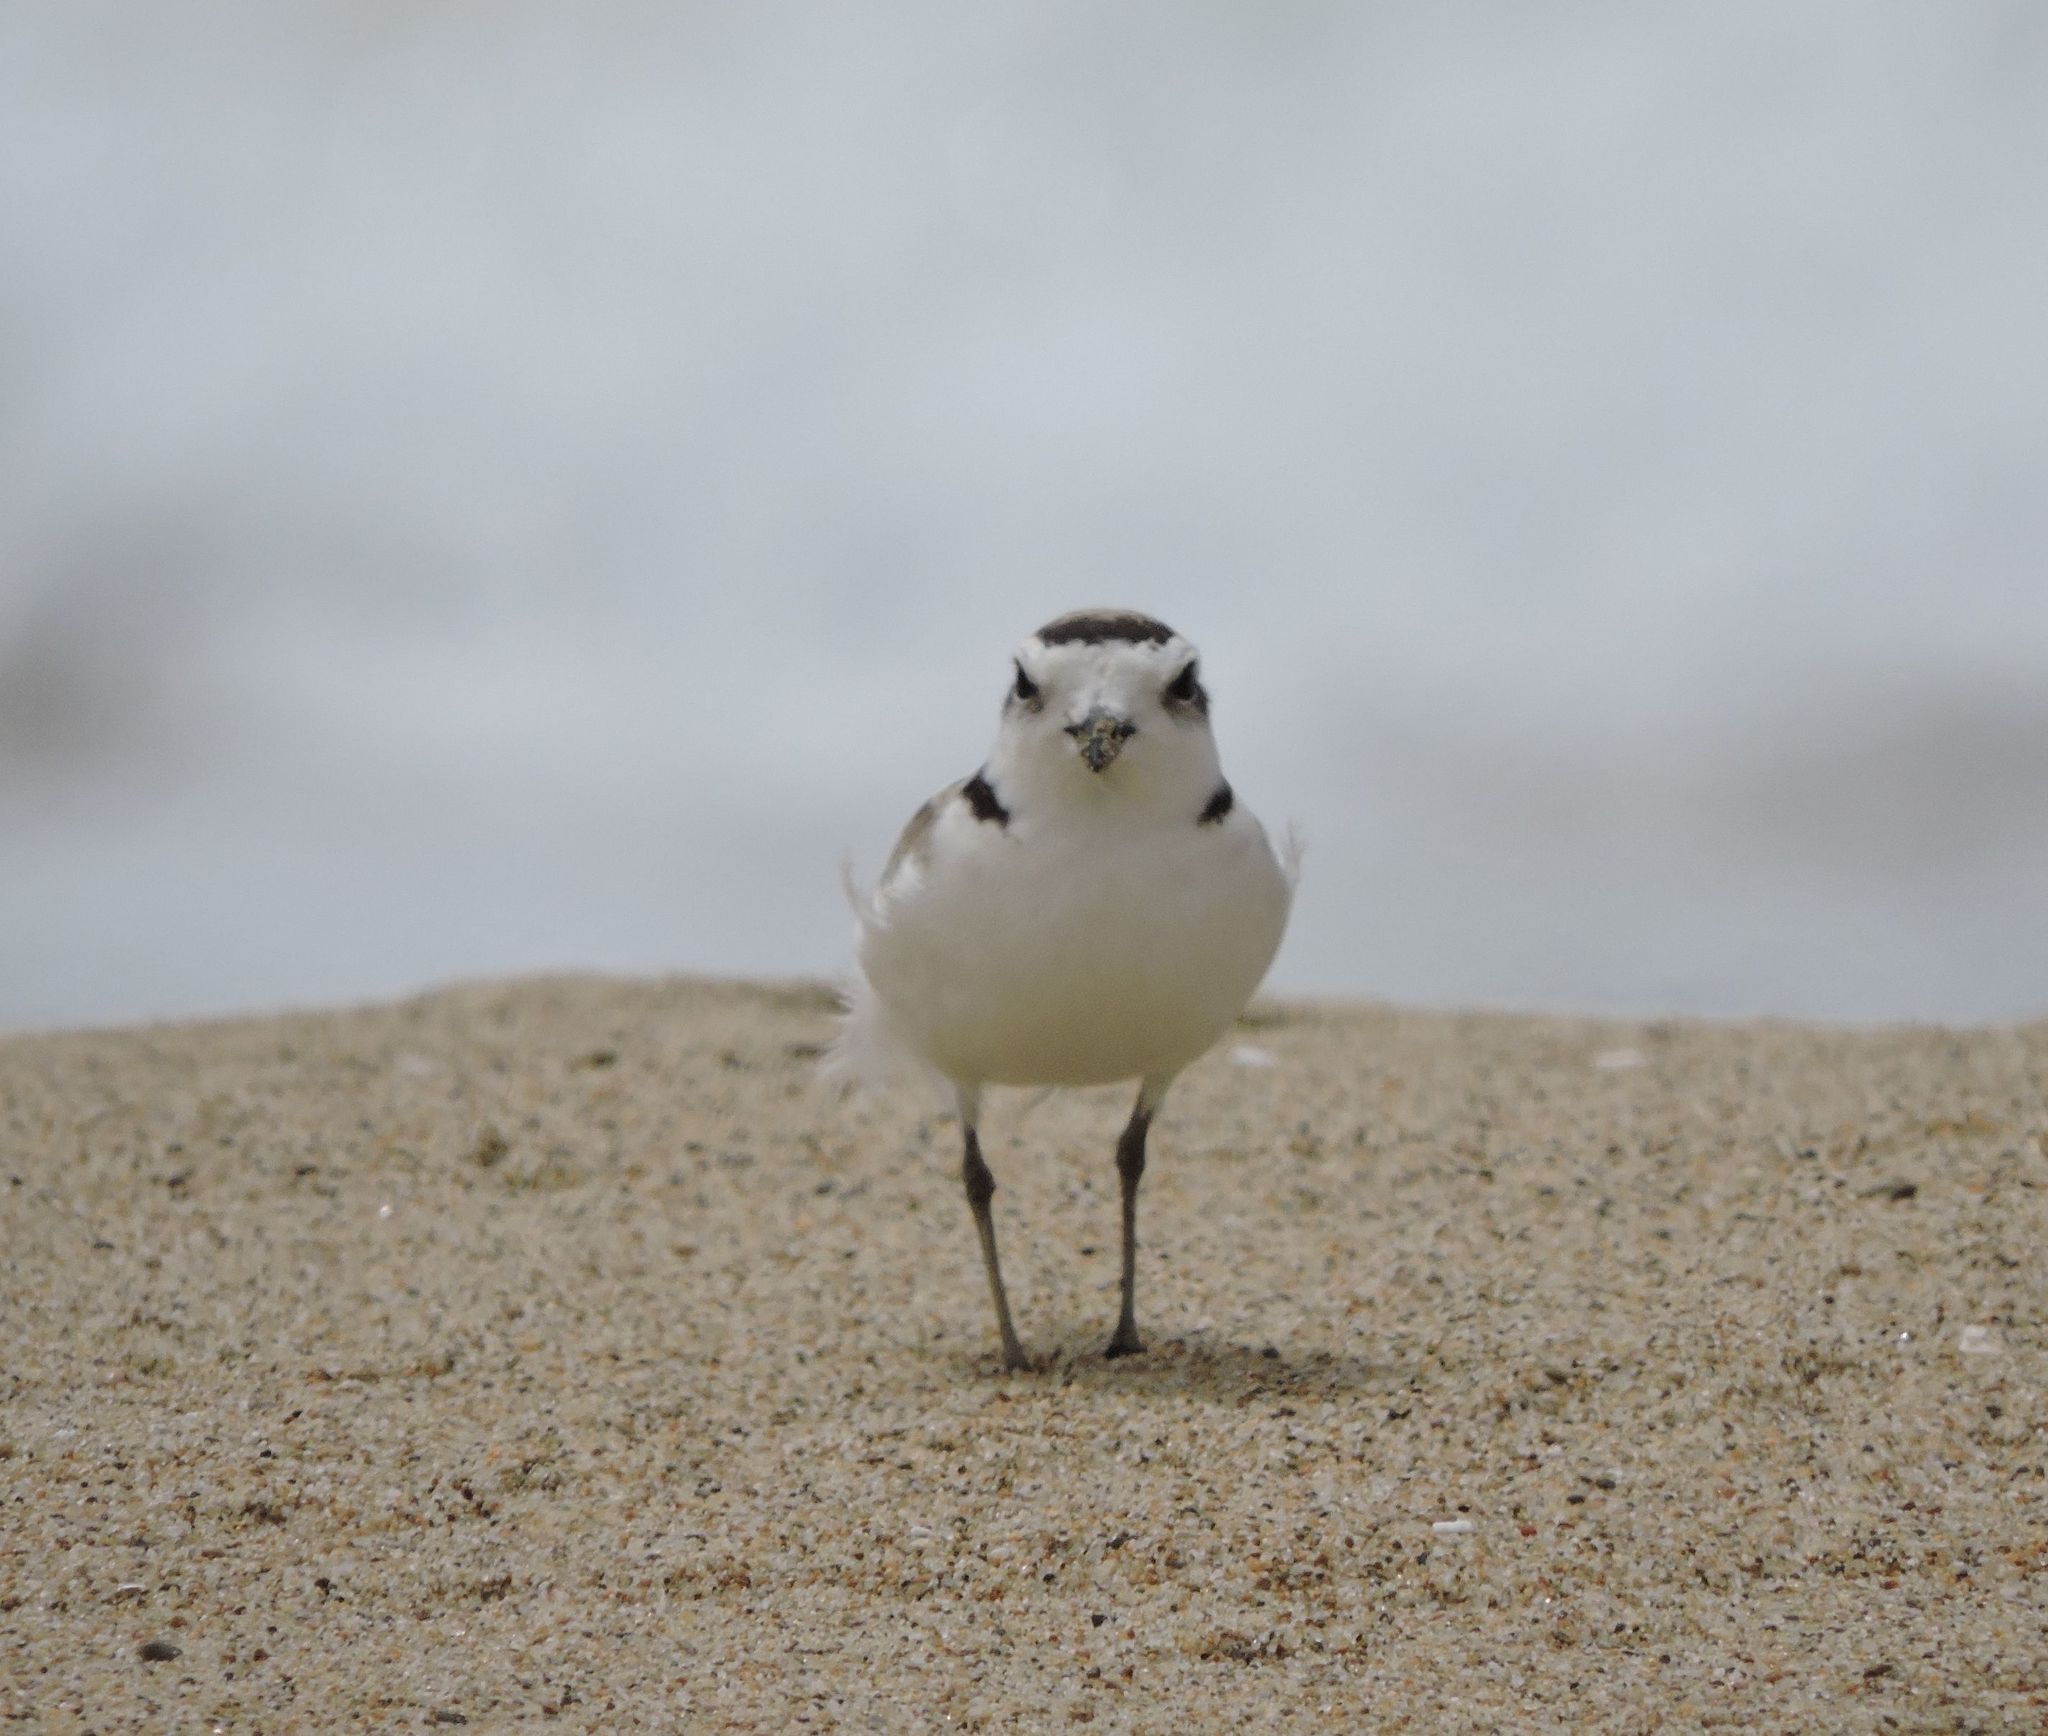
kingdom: Animalia
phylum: Chordata
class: Aves
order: Charadriiformes
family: Charadriidae
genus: Anarhynchus
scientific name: Anarhynchus
